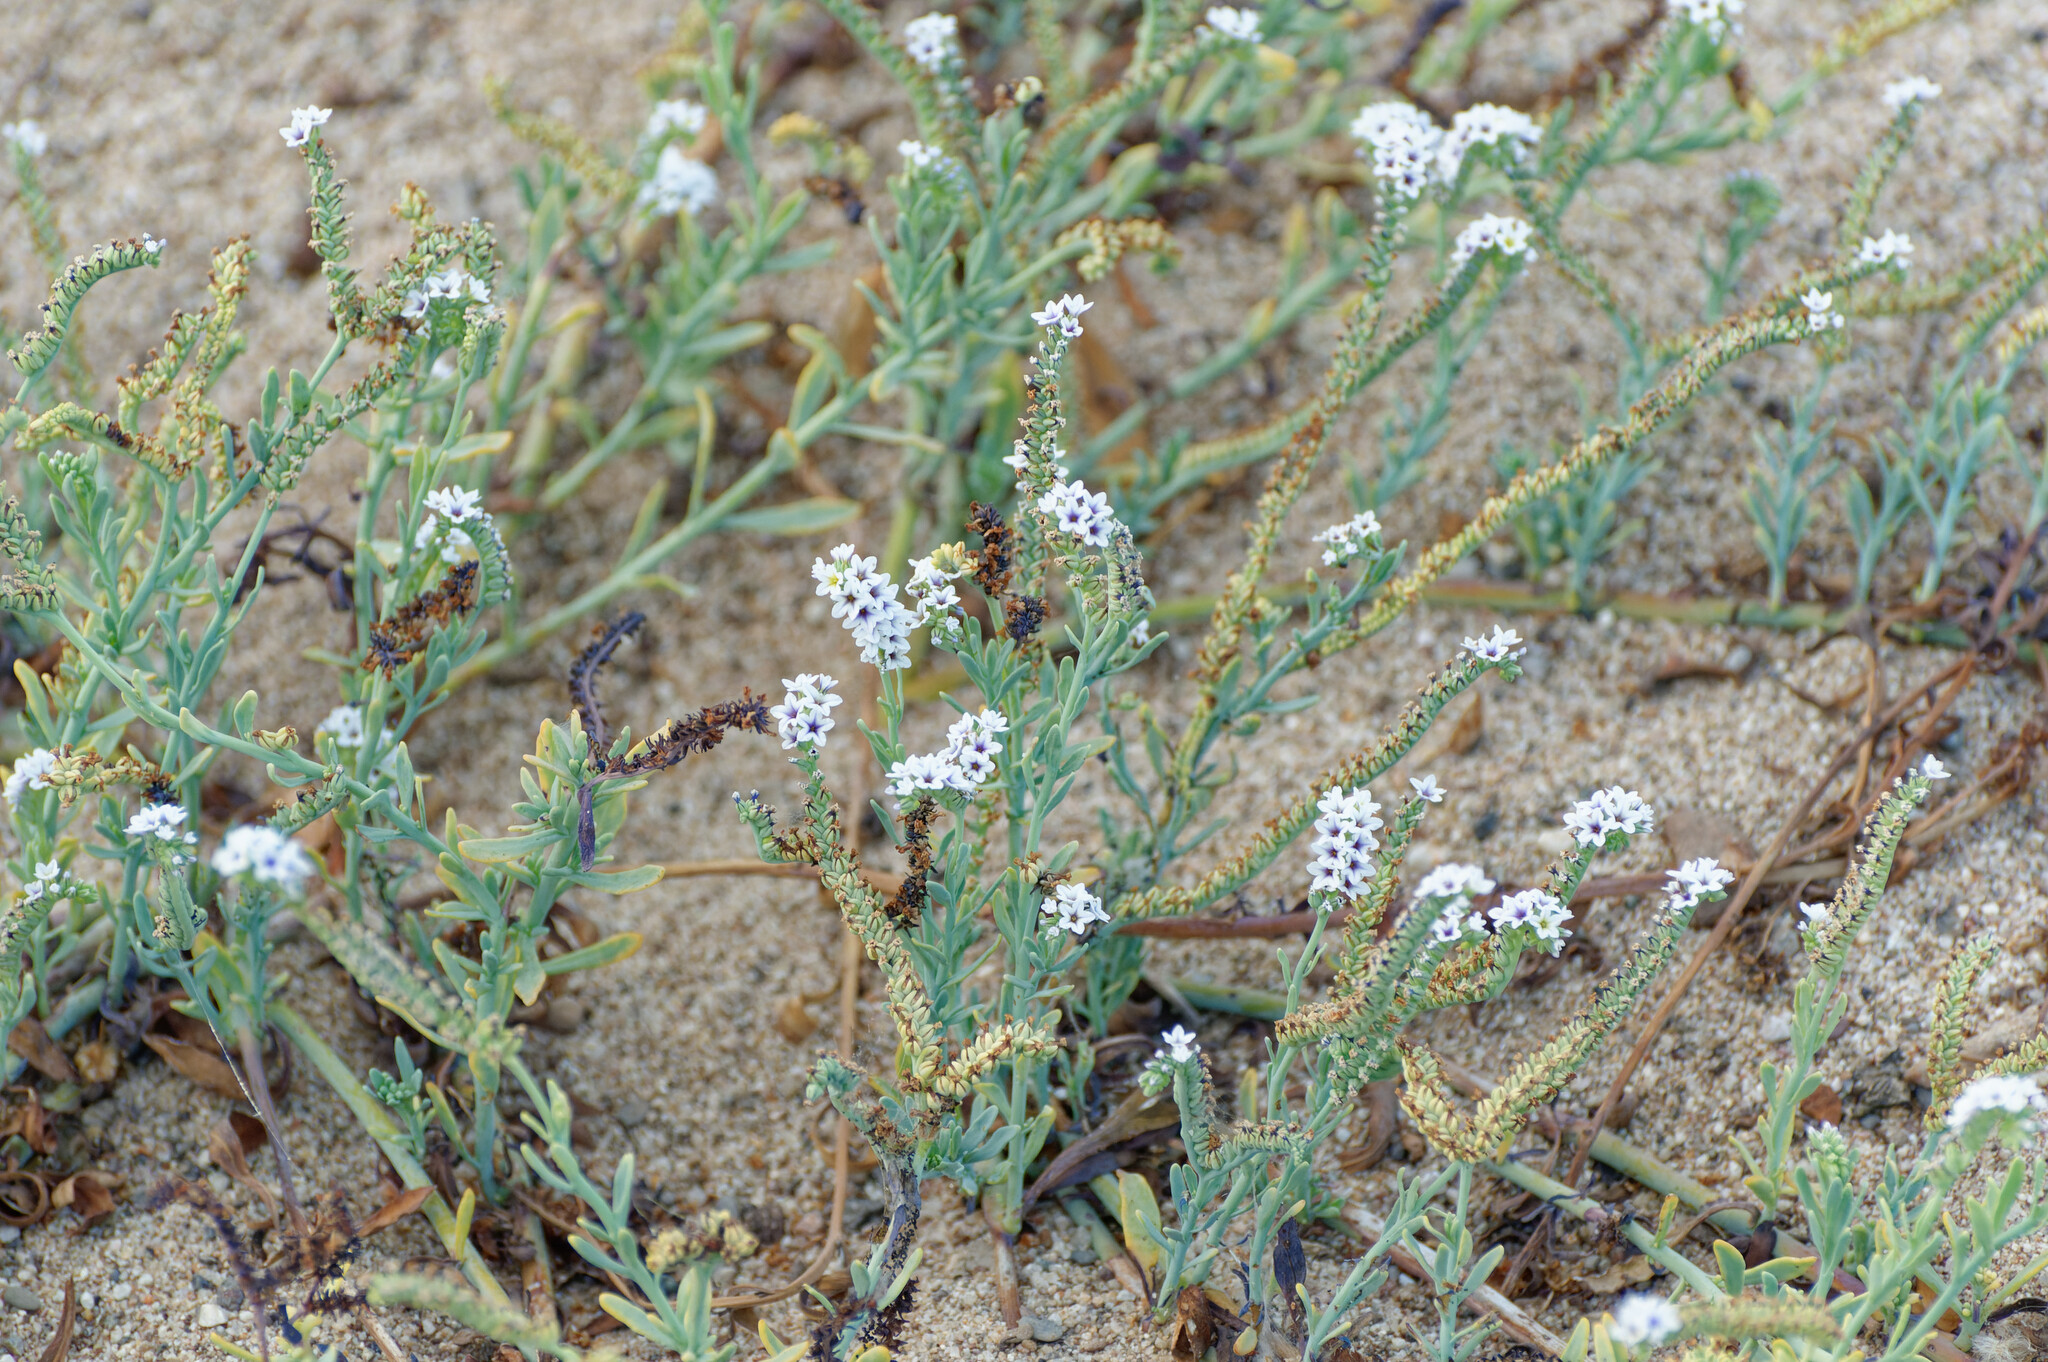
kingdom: Plantae
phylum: Tracheophyta
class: Magnoliopsida
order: Boraginales
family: Heliotropiaceae
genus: Heliotropium
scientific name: Heliotropium curassavicum
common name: Seaside heliotrope
